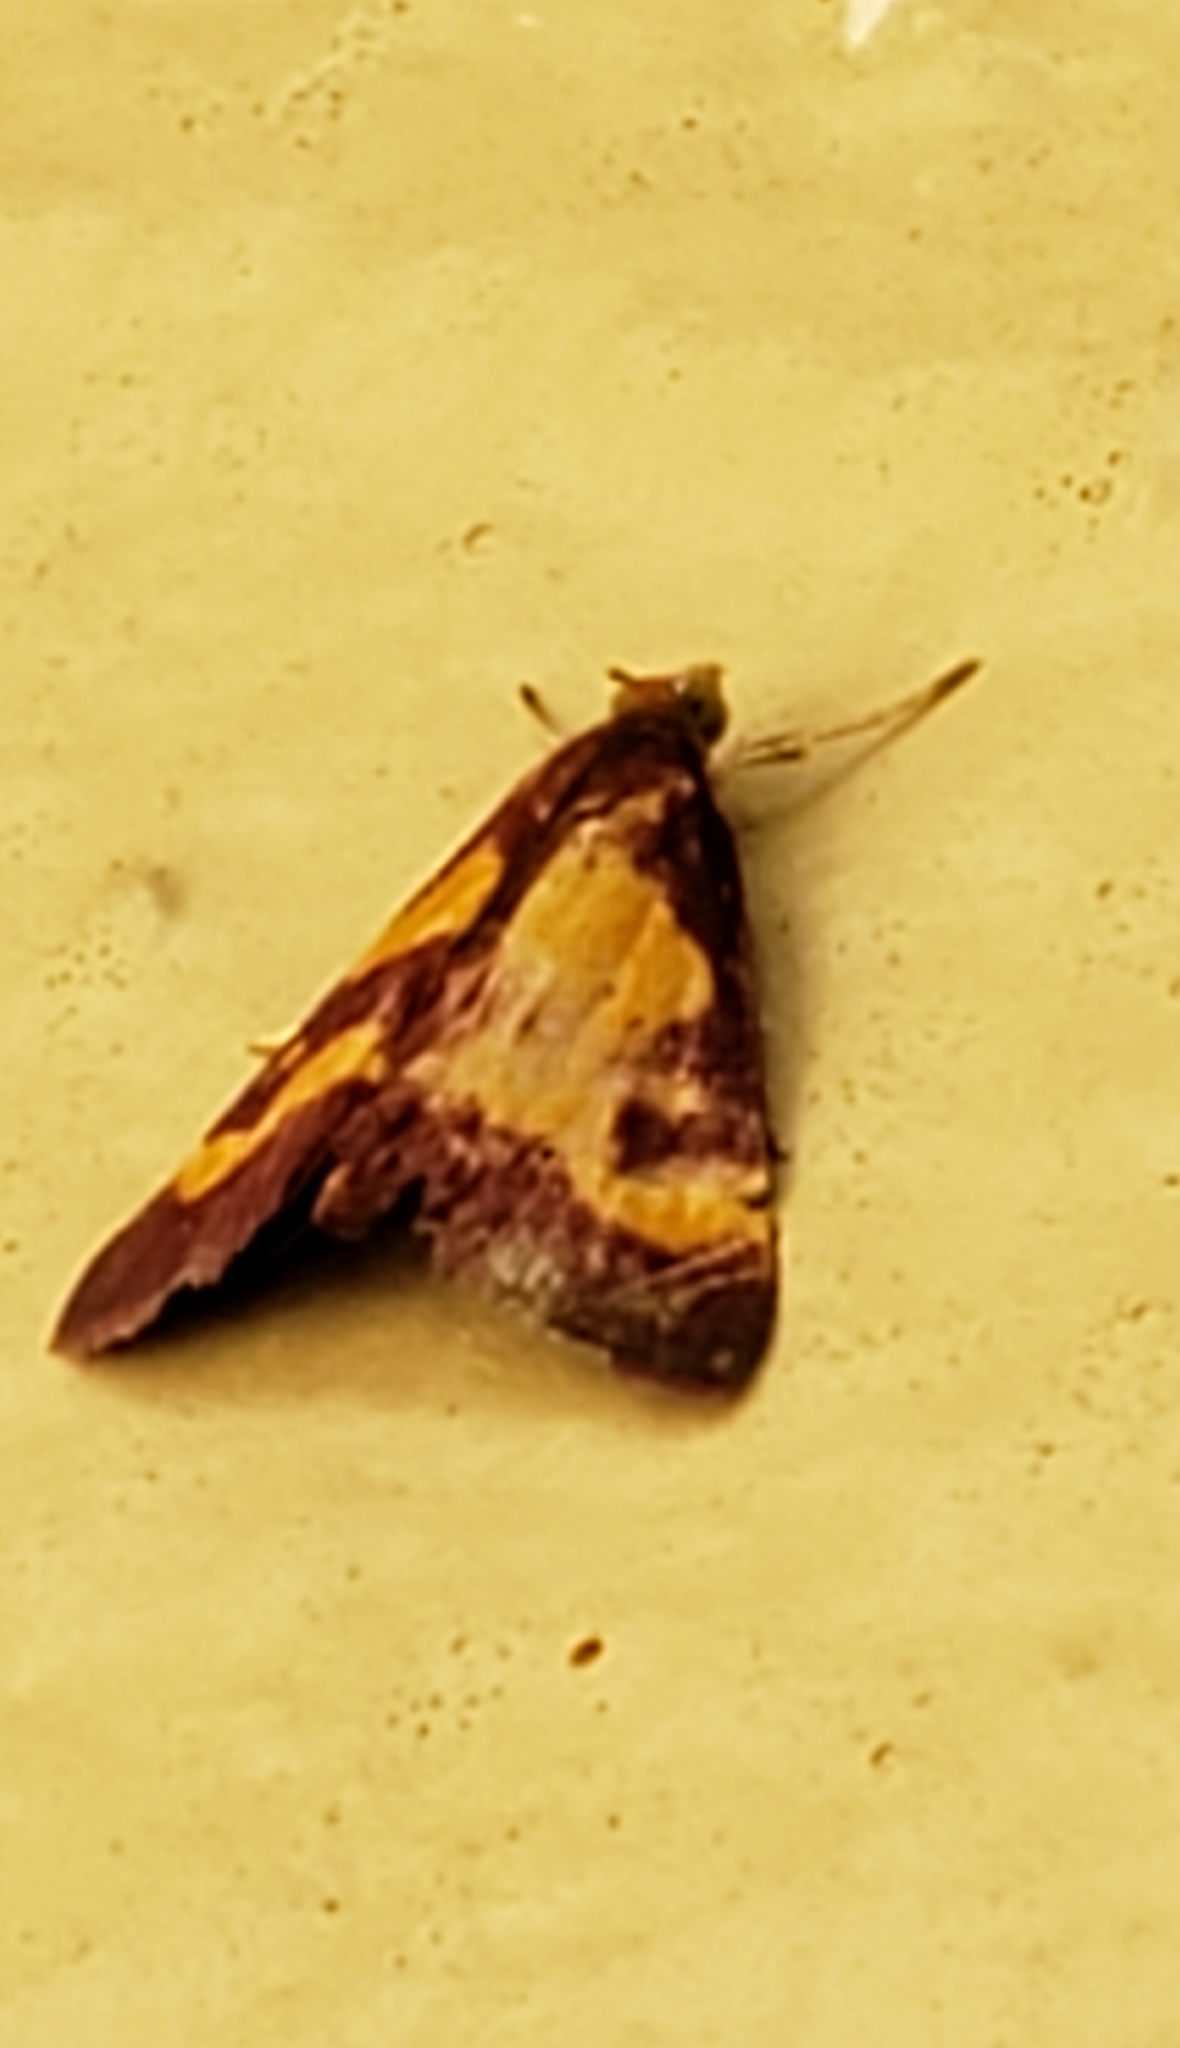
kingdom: Animalia
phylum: Arthropoda
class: Insecta
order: Lepidoptera
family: Crambidae
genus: Pyrausta
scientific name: Pyrausta tyralis
